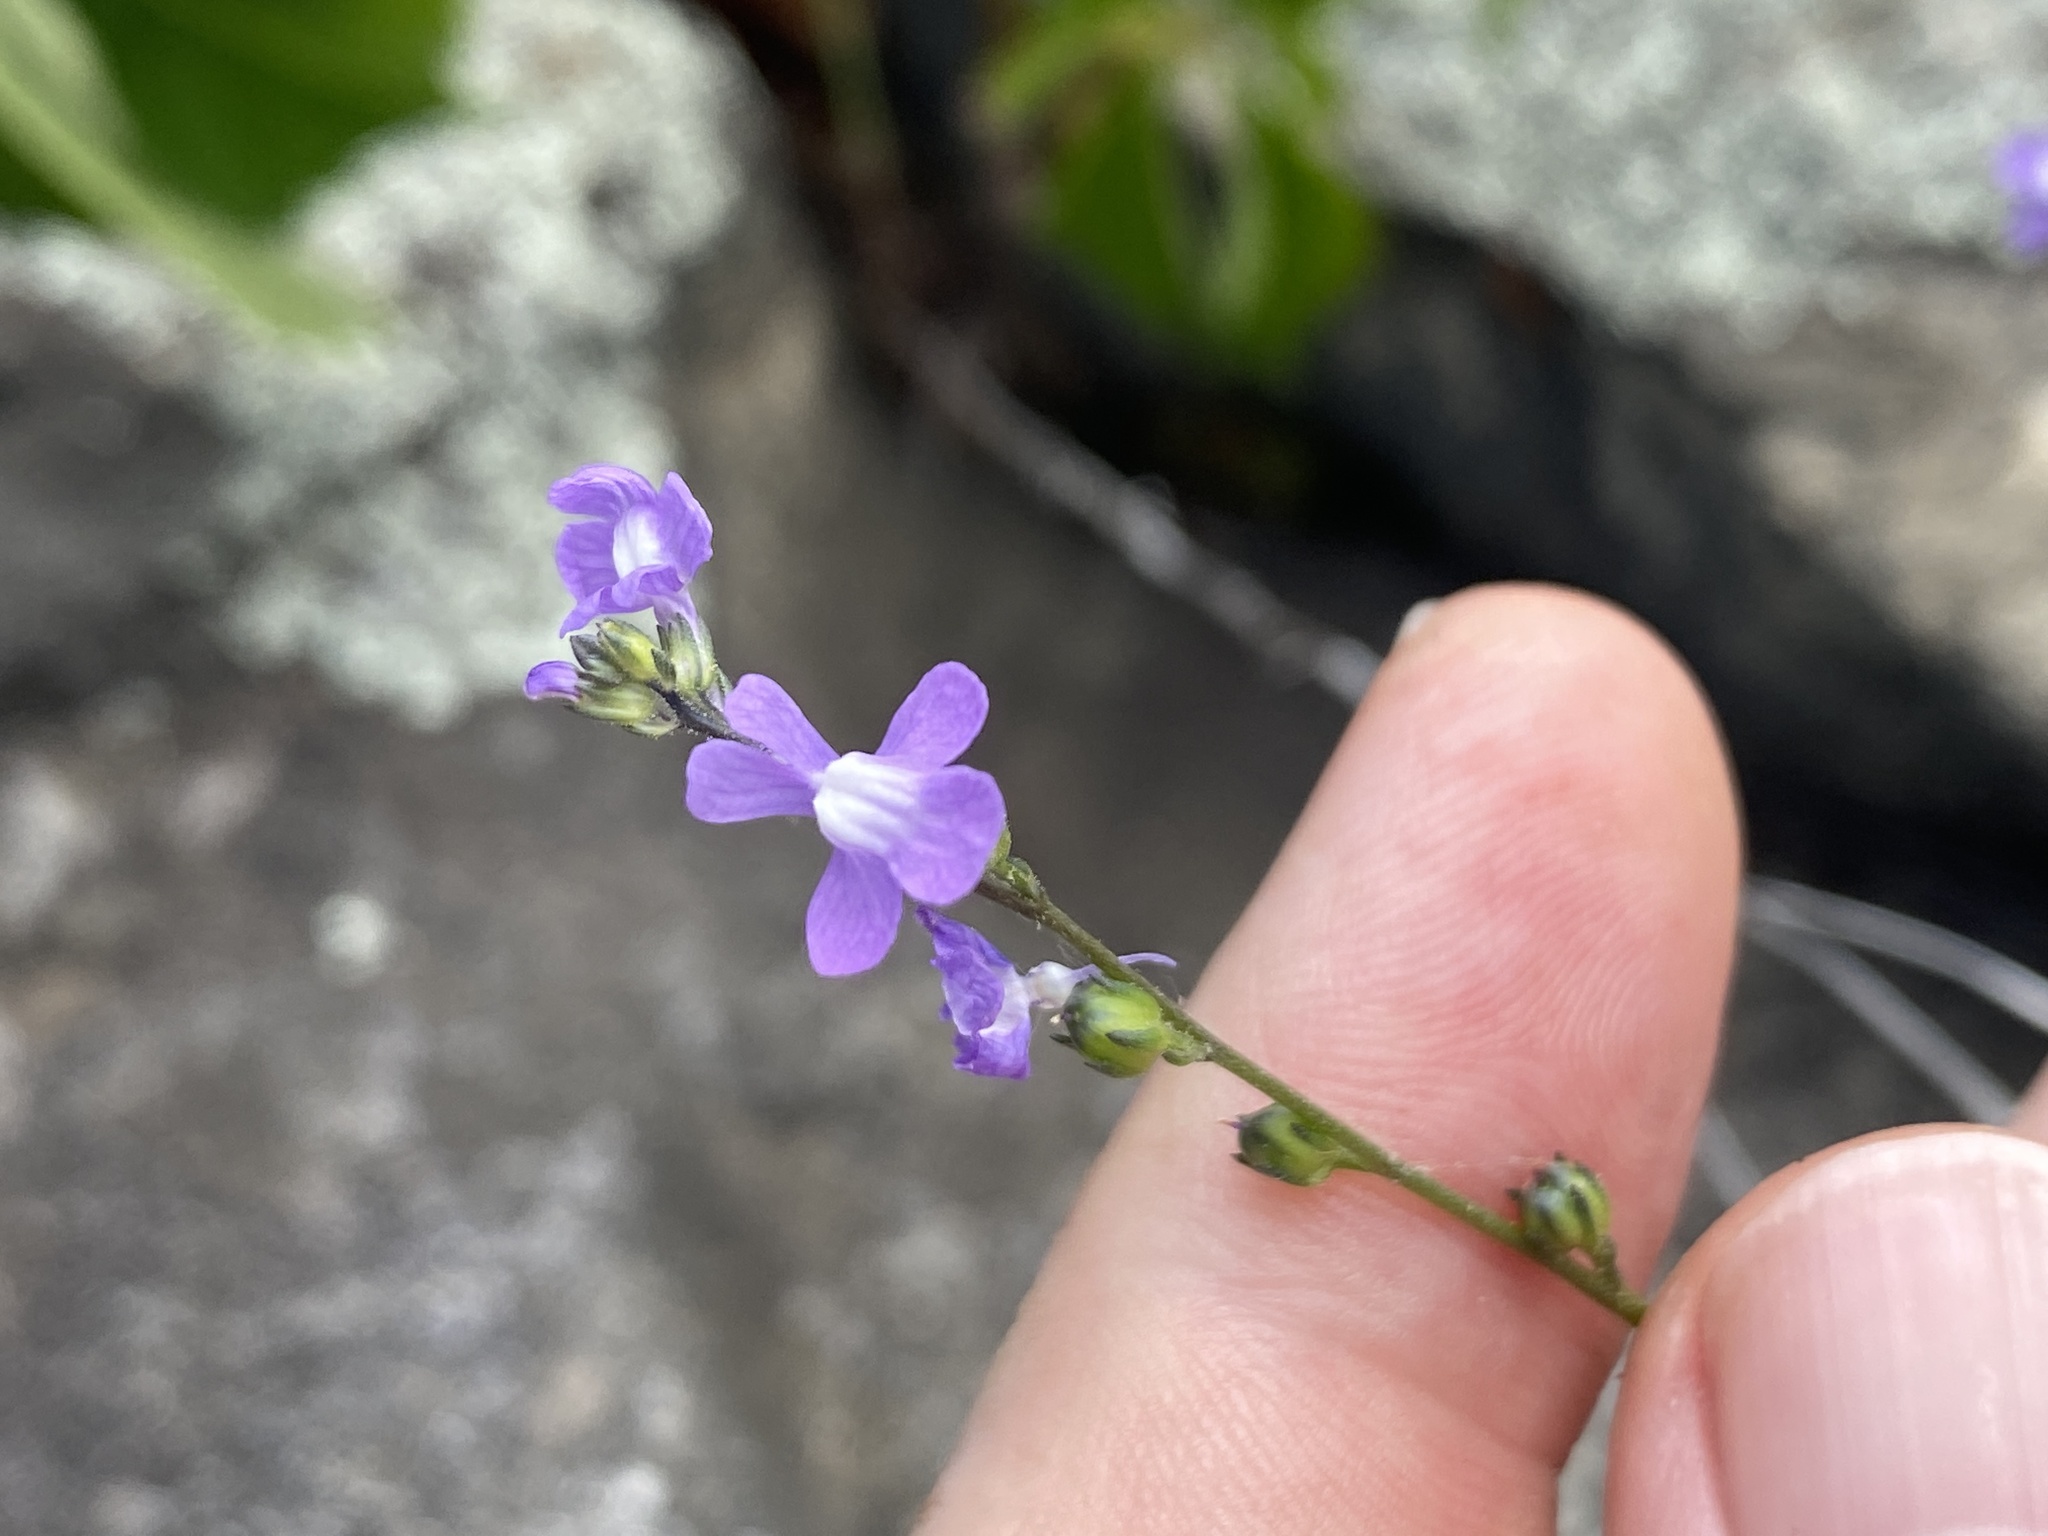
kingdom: Plantae
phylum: Tracheophyta
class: Magnoliopsida
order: Lamiales
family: Plantaginaceae
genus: Nuttallanthus
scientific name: Nuttallanthus canadensis
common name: Blue toadflax
